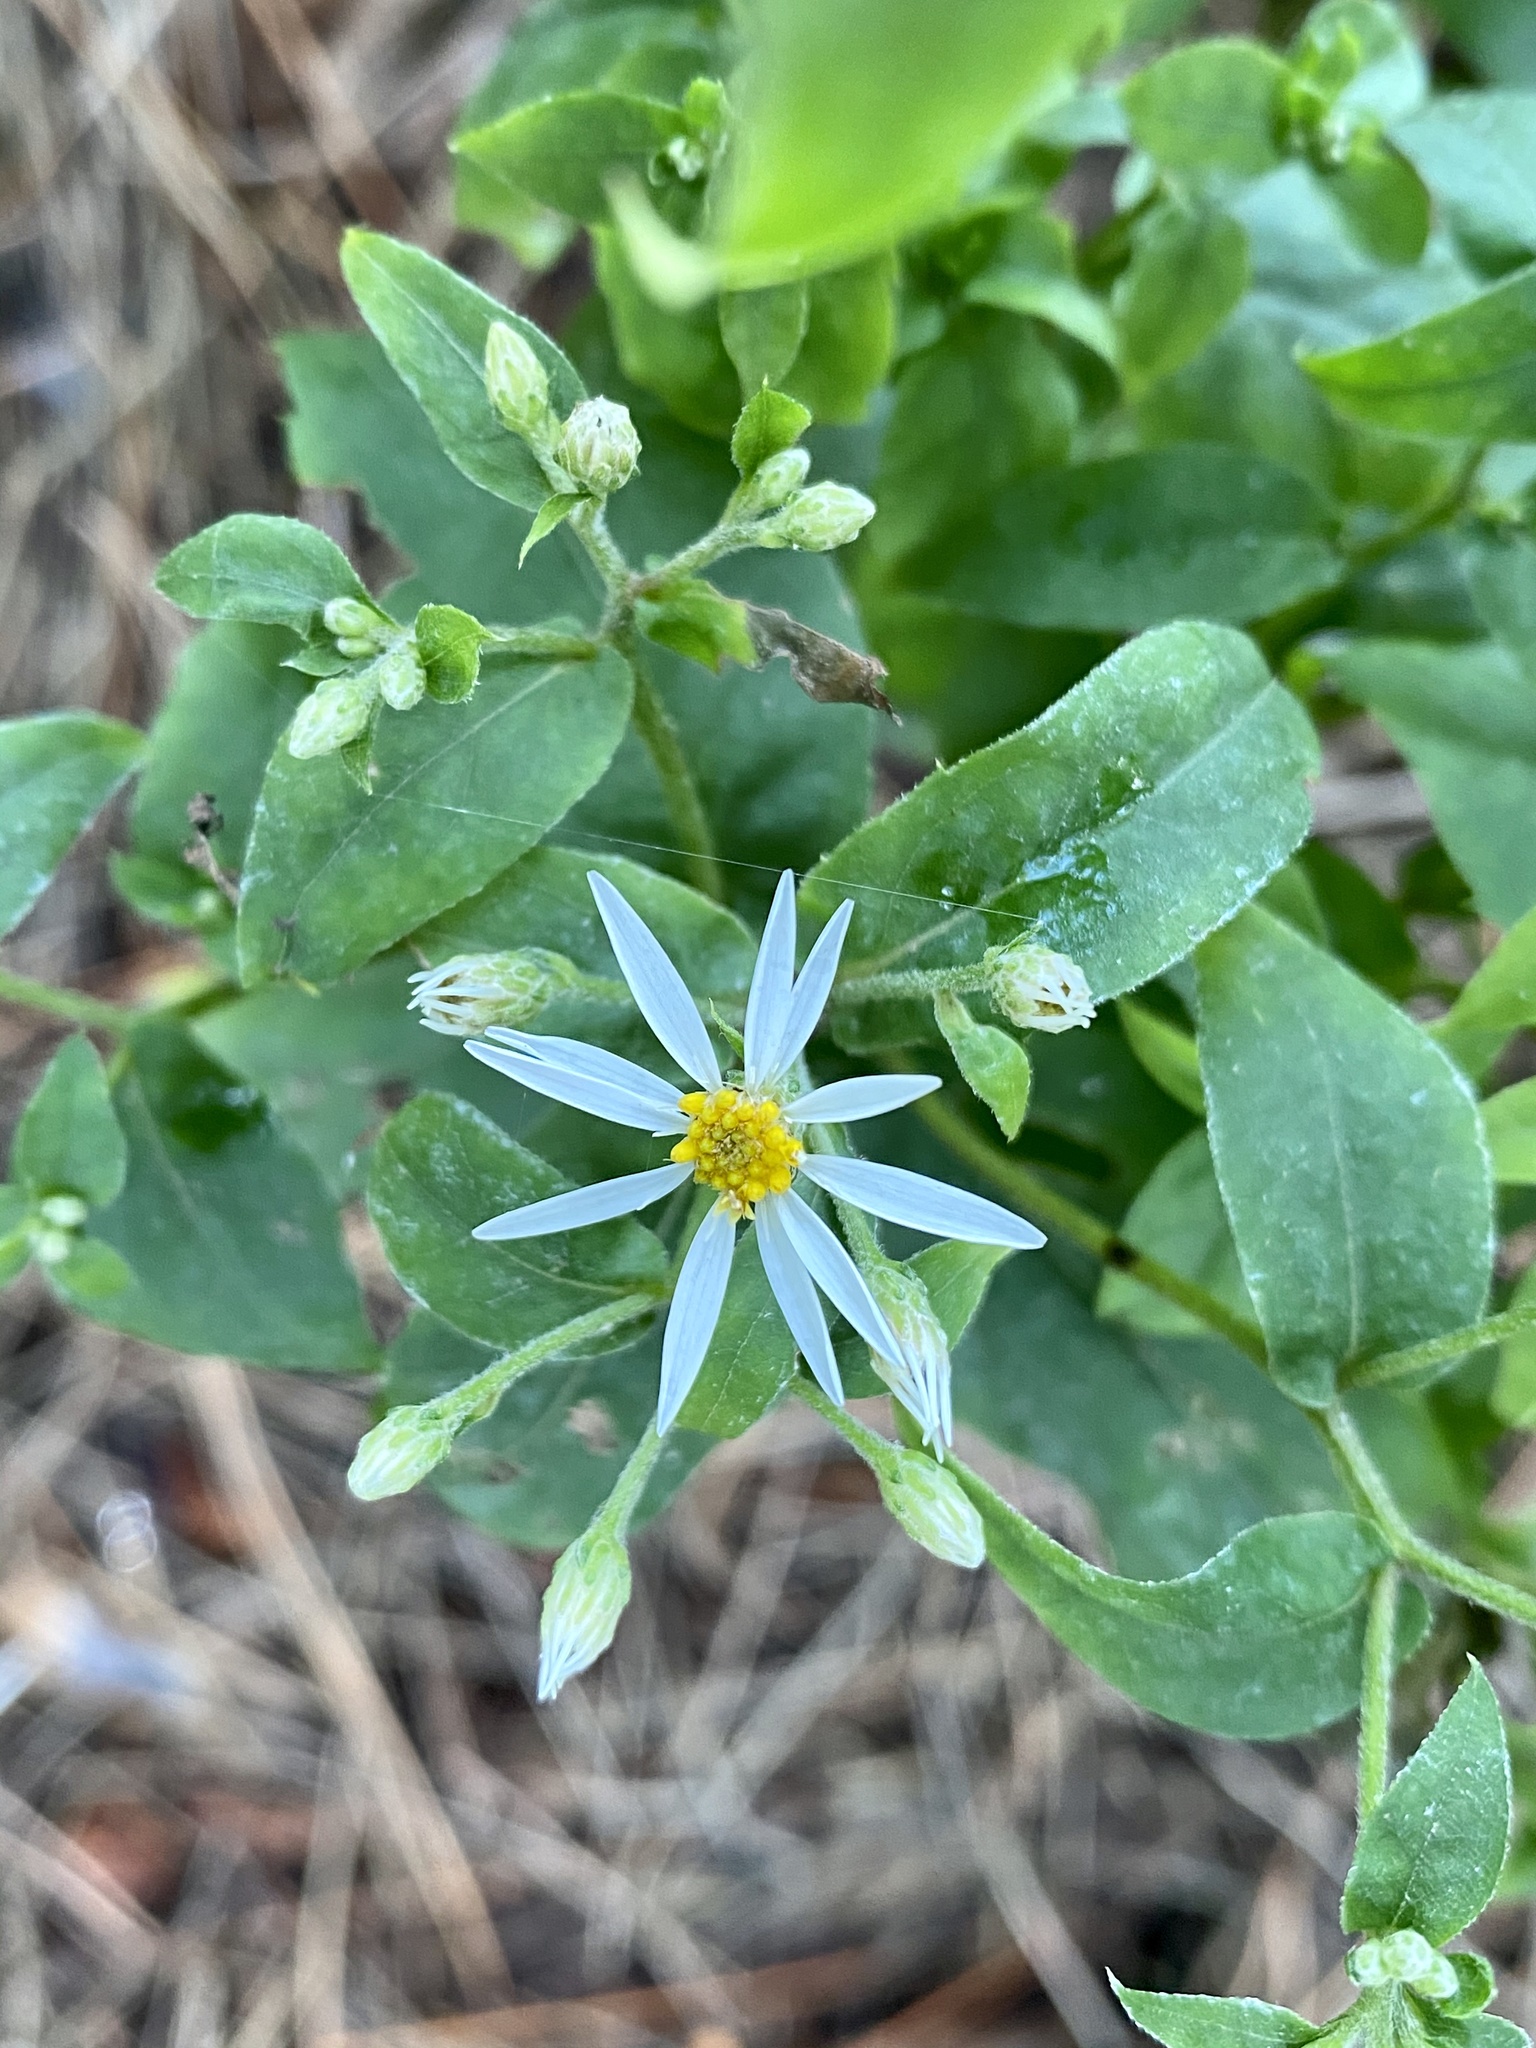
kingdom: Plantae
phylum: Tracheophyta
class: Magnoliopsida
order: Asterales
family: Asteraceae
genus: Eurybia
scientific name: Eurybia divaricata
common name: White wood aster
